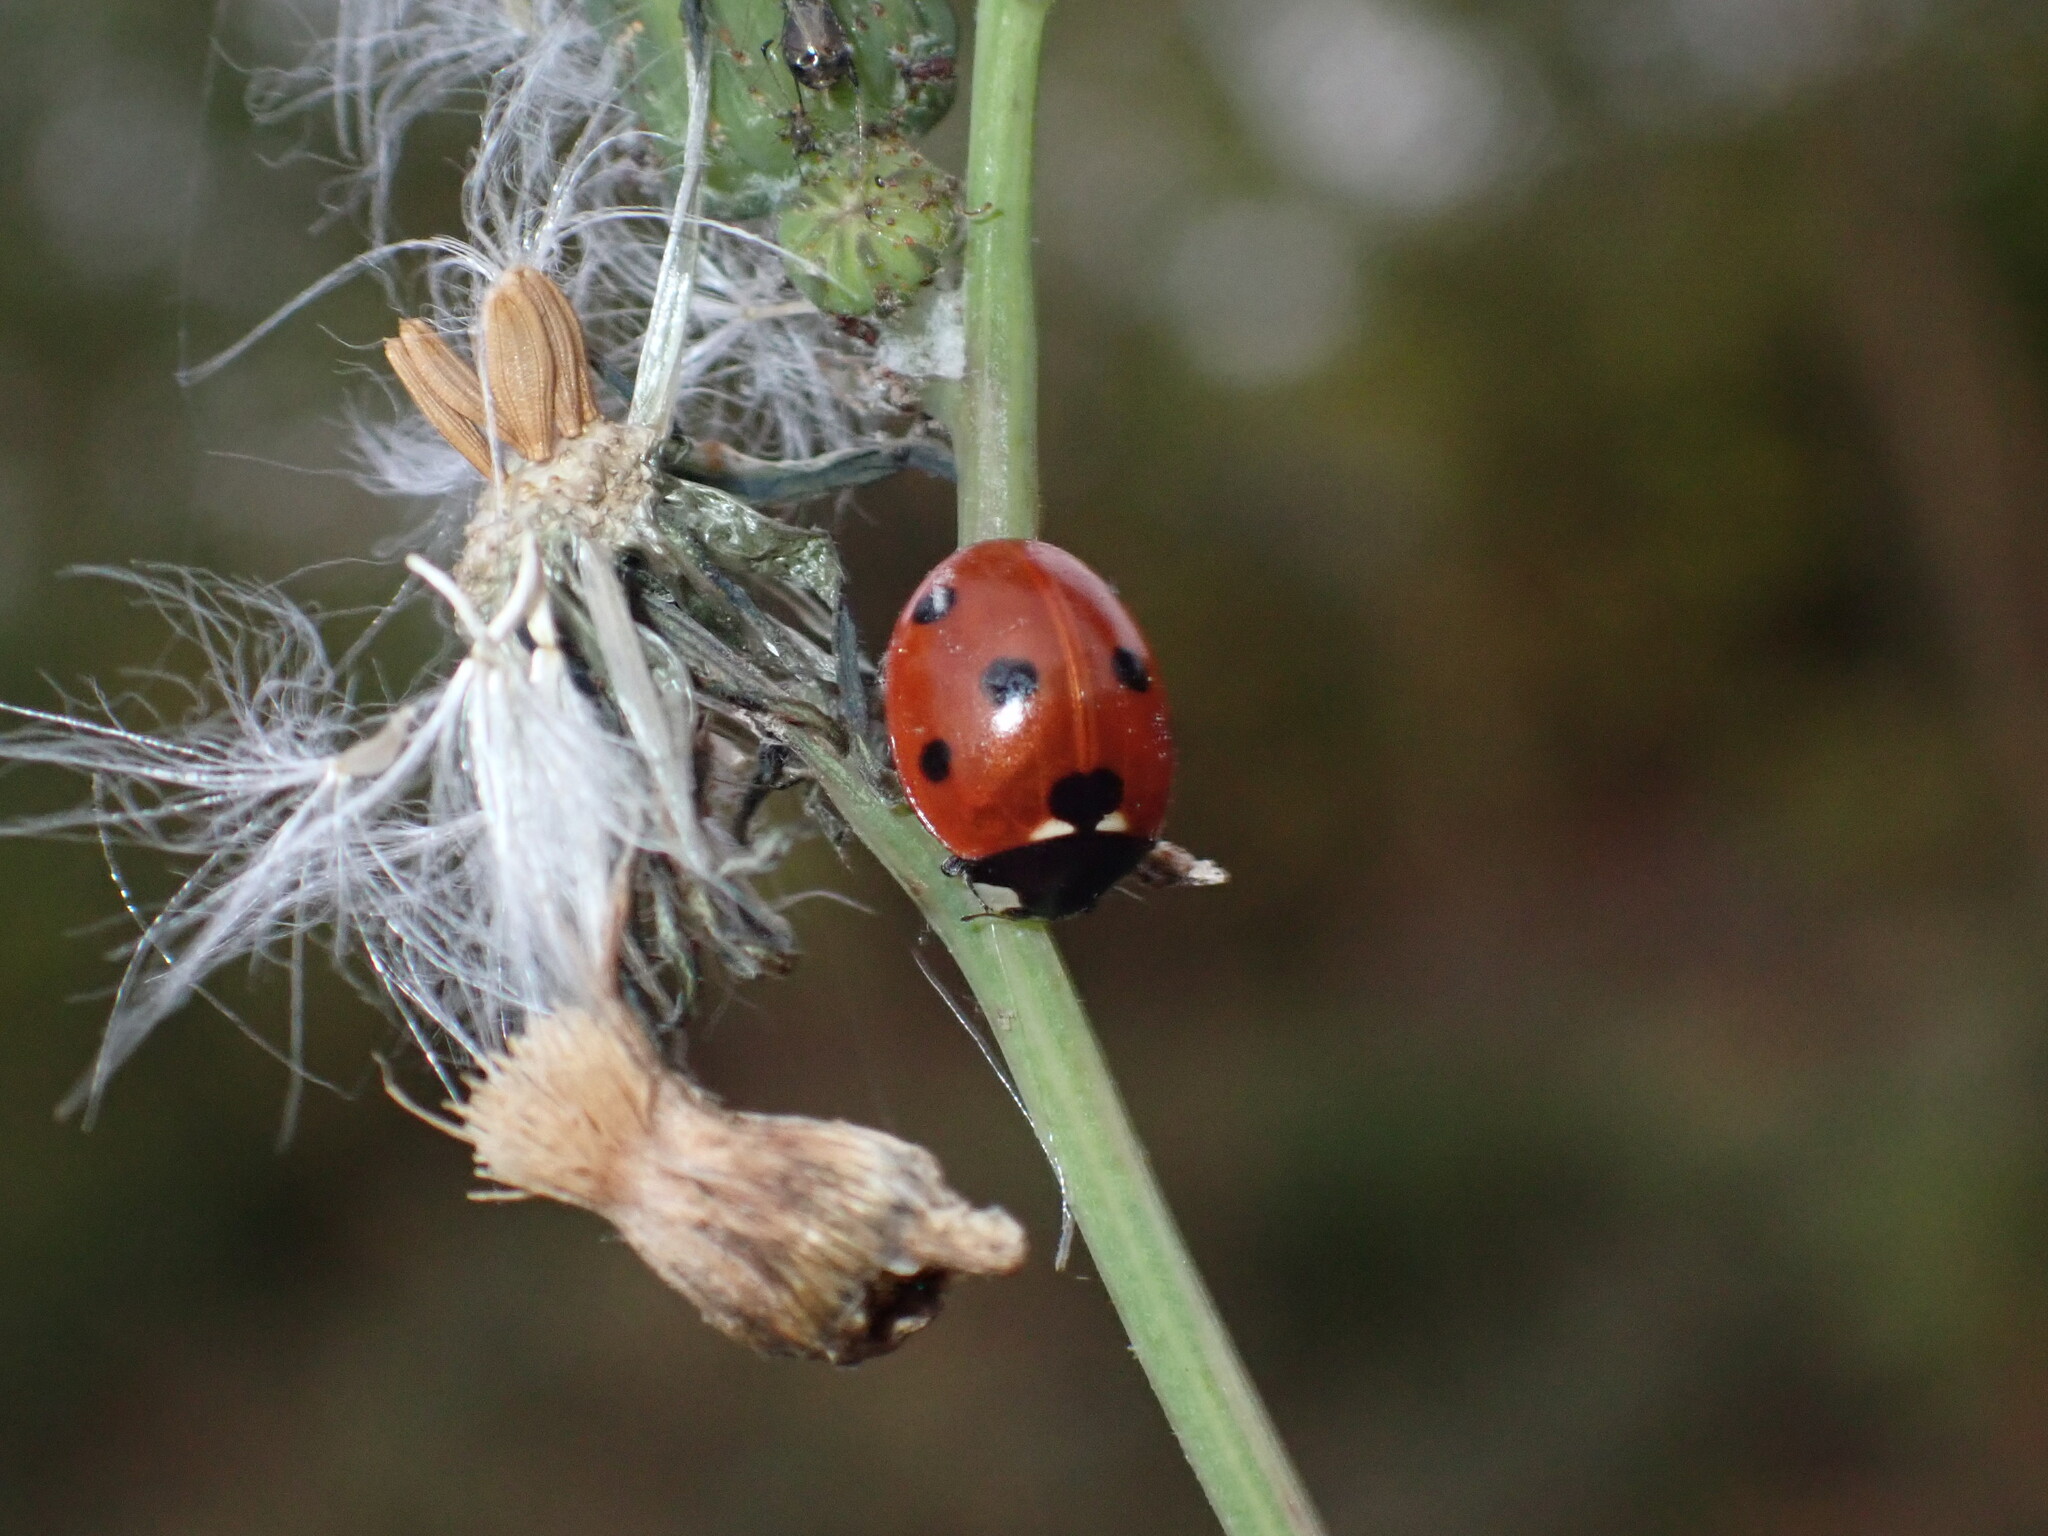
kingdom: Animalia
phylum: Arthropoda
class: Insecta
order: Coleoptera
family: Coccinellidae
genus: Coccinella
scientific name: Coccinella septempunctata
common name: Sevenspotted lady beetle
